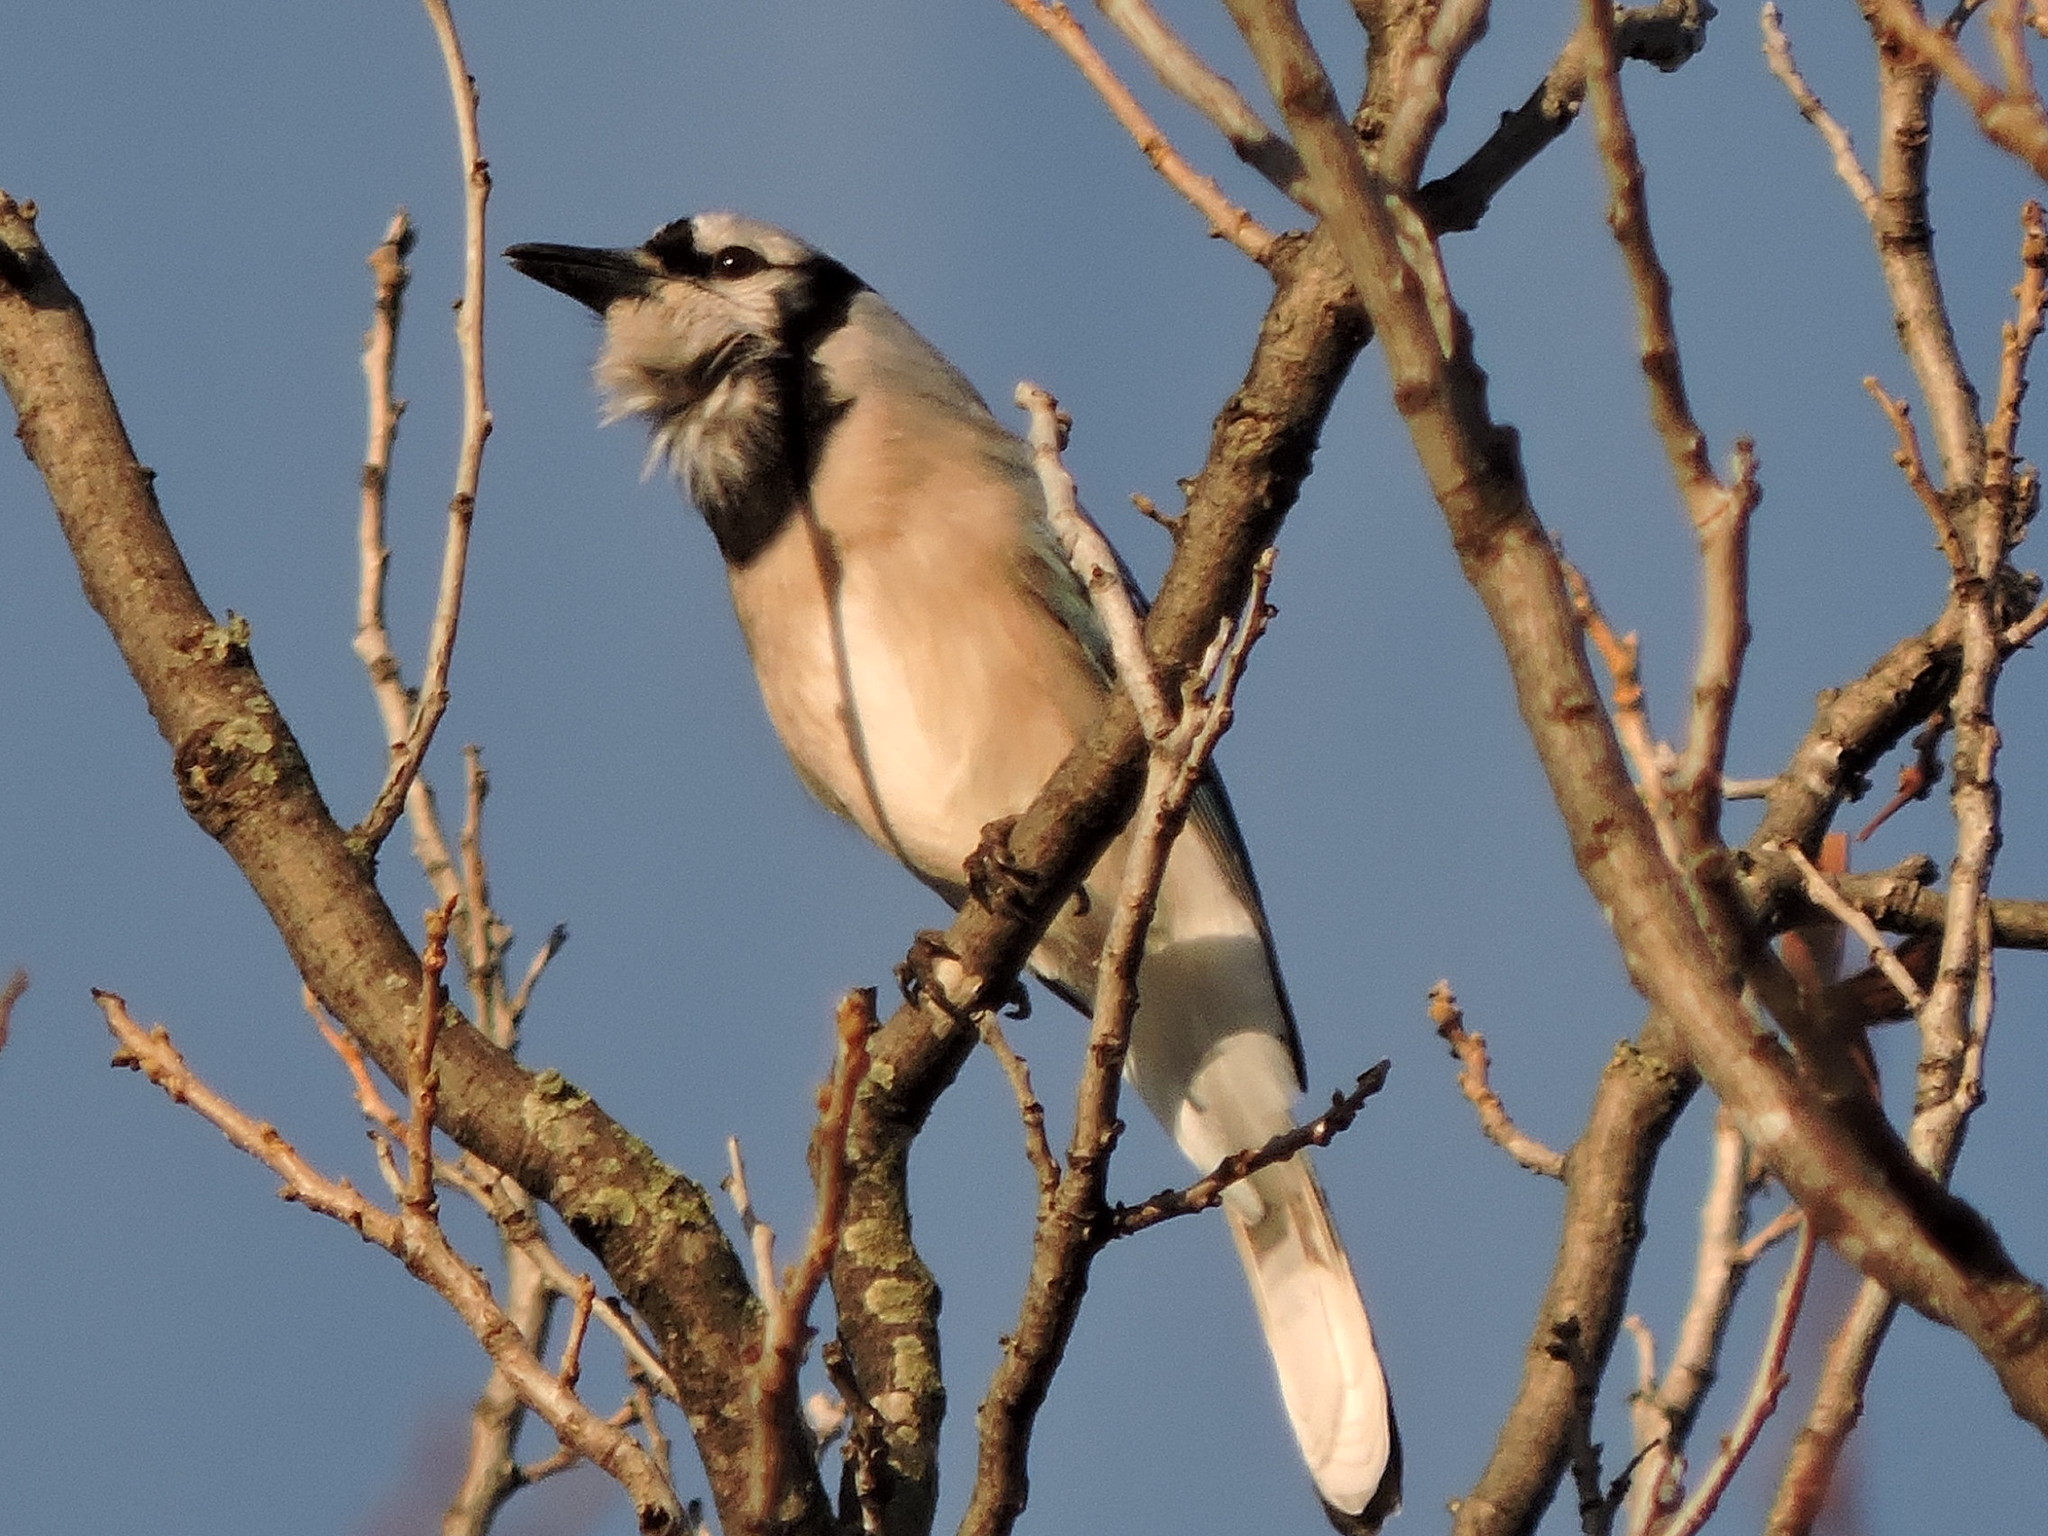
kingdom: Animalia
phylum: Chordata
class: Aves
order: Passeriformes
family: Corvidae
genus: Cyanocitta
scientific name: Cyanocitta cristata
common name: Blue jay
